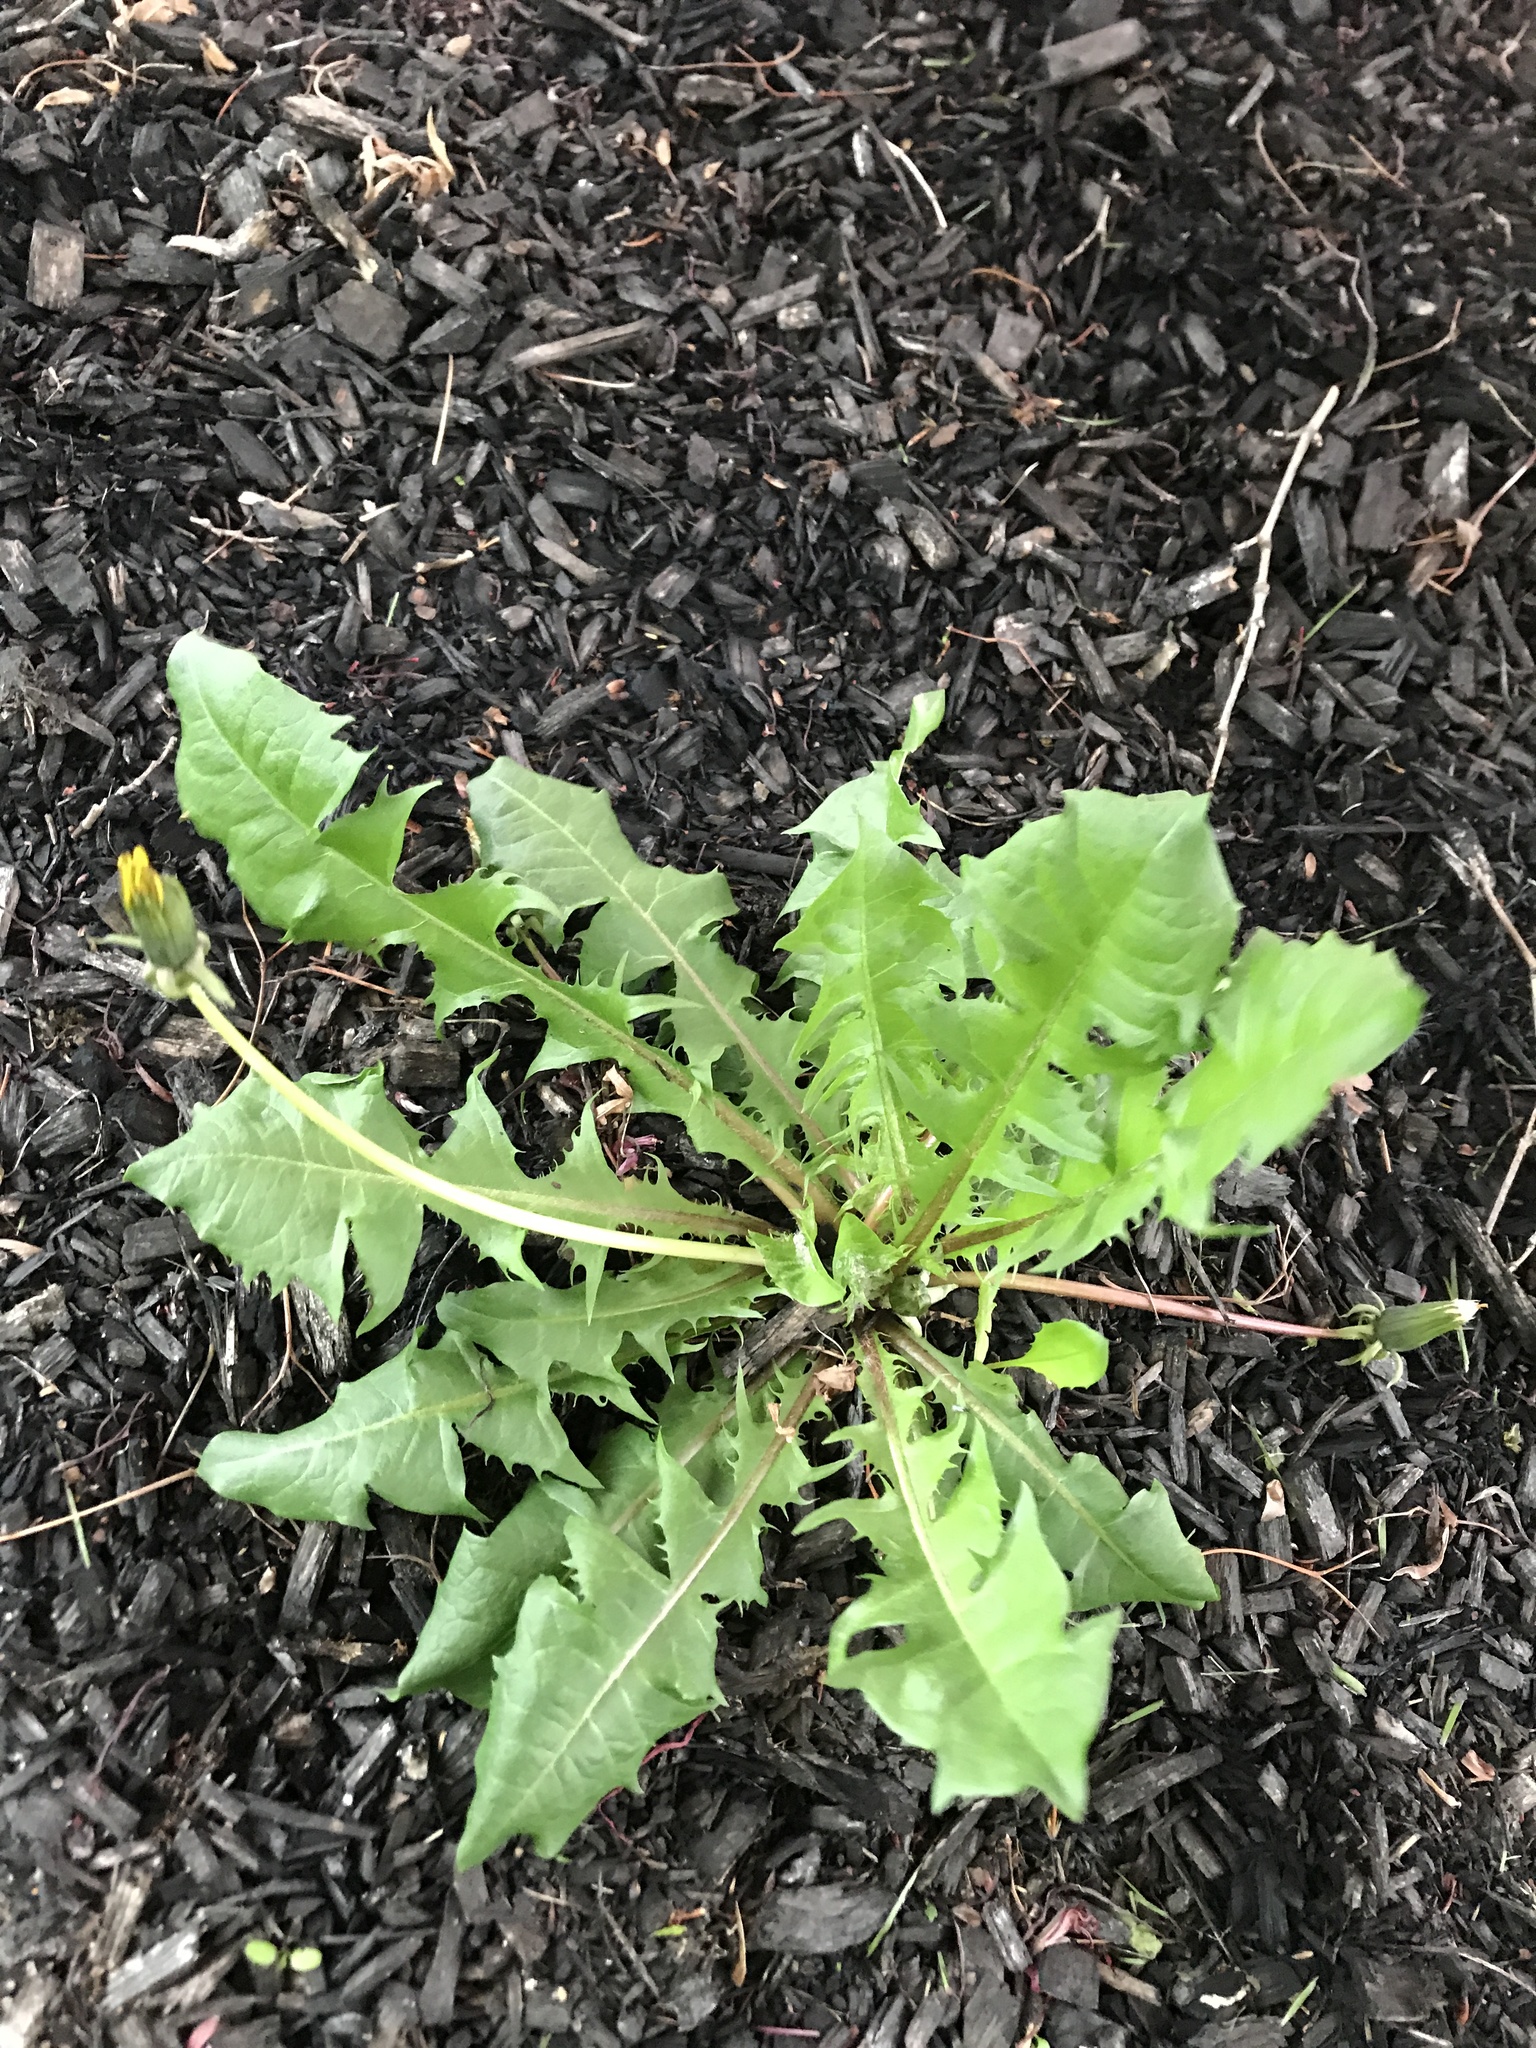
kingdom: Plantae
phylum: Tracheophyta
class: Magnoliopsida
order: Asterales
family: Asteraceae
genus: Taraxacum
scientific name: Taraxacum officinale
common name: Common dandelion
